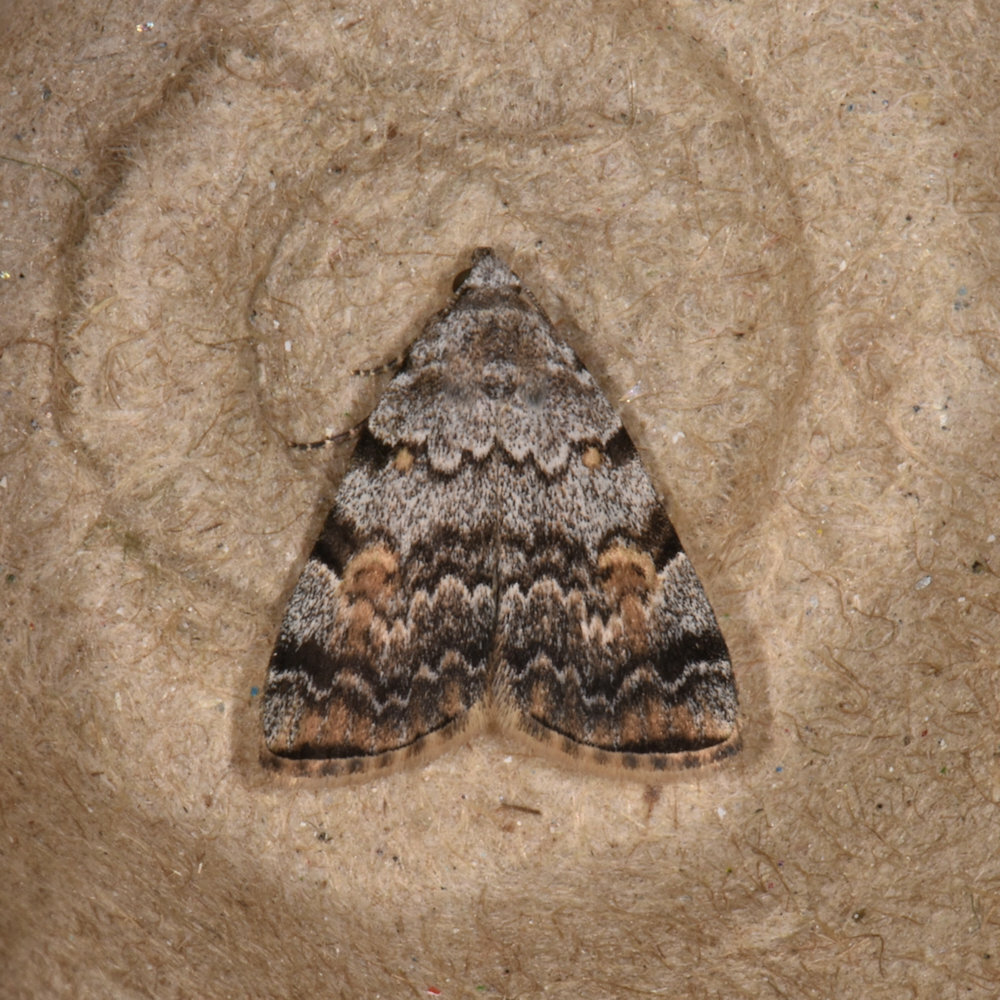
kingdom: Animalia
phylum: Arthropoda
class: Insecta
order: Lepidoptera
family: Erebidae
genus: Idia
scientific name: Idia americalis
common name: American idia moth
